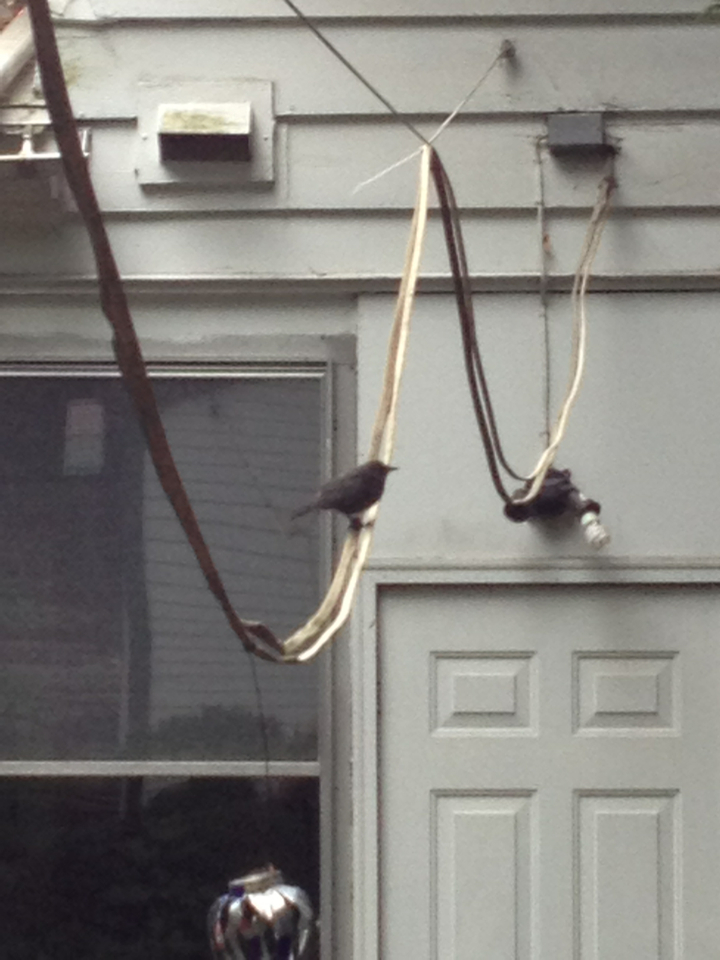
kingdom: Animalia
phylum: Chordata
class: Aves
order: Passeriformes
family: Mimidae
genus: Dumetella
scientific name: Dumetella carolinensis
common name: Gray catbird
